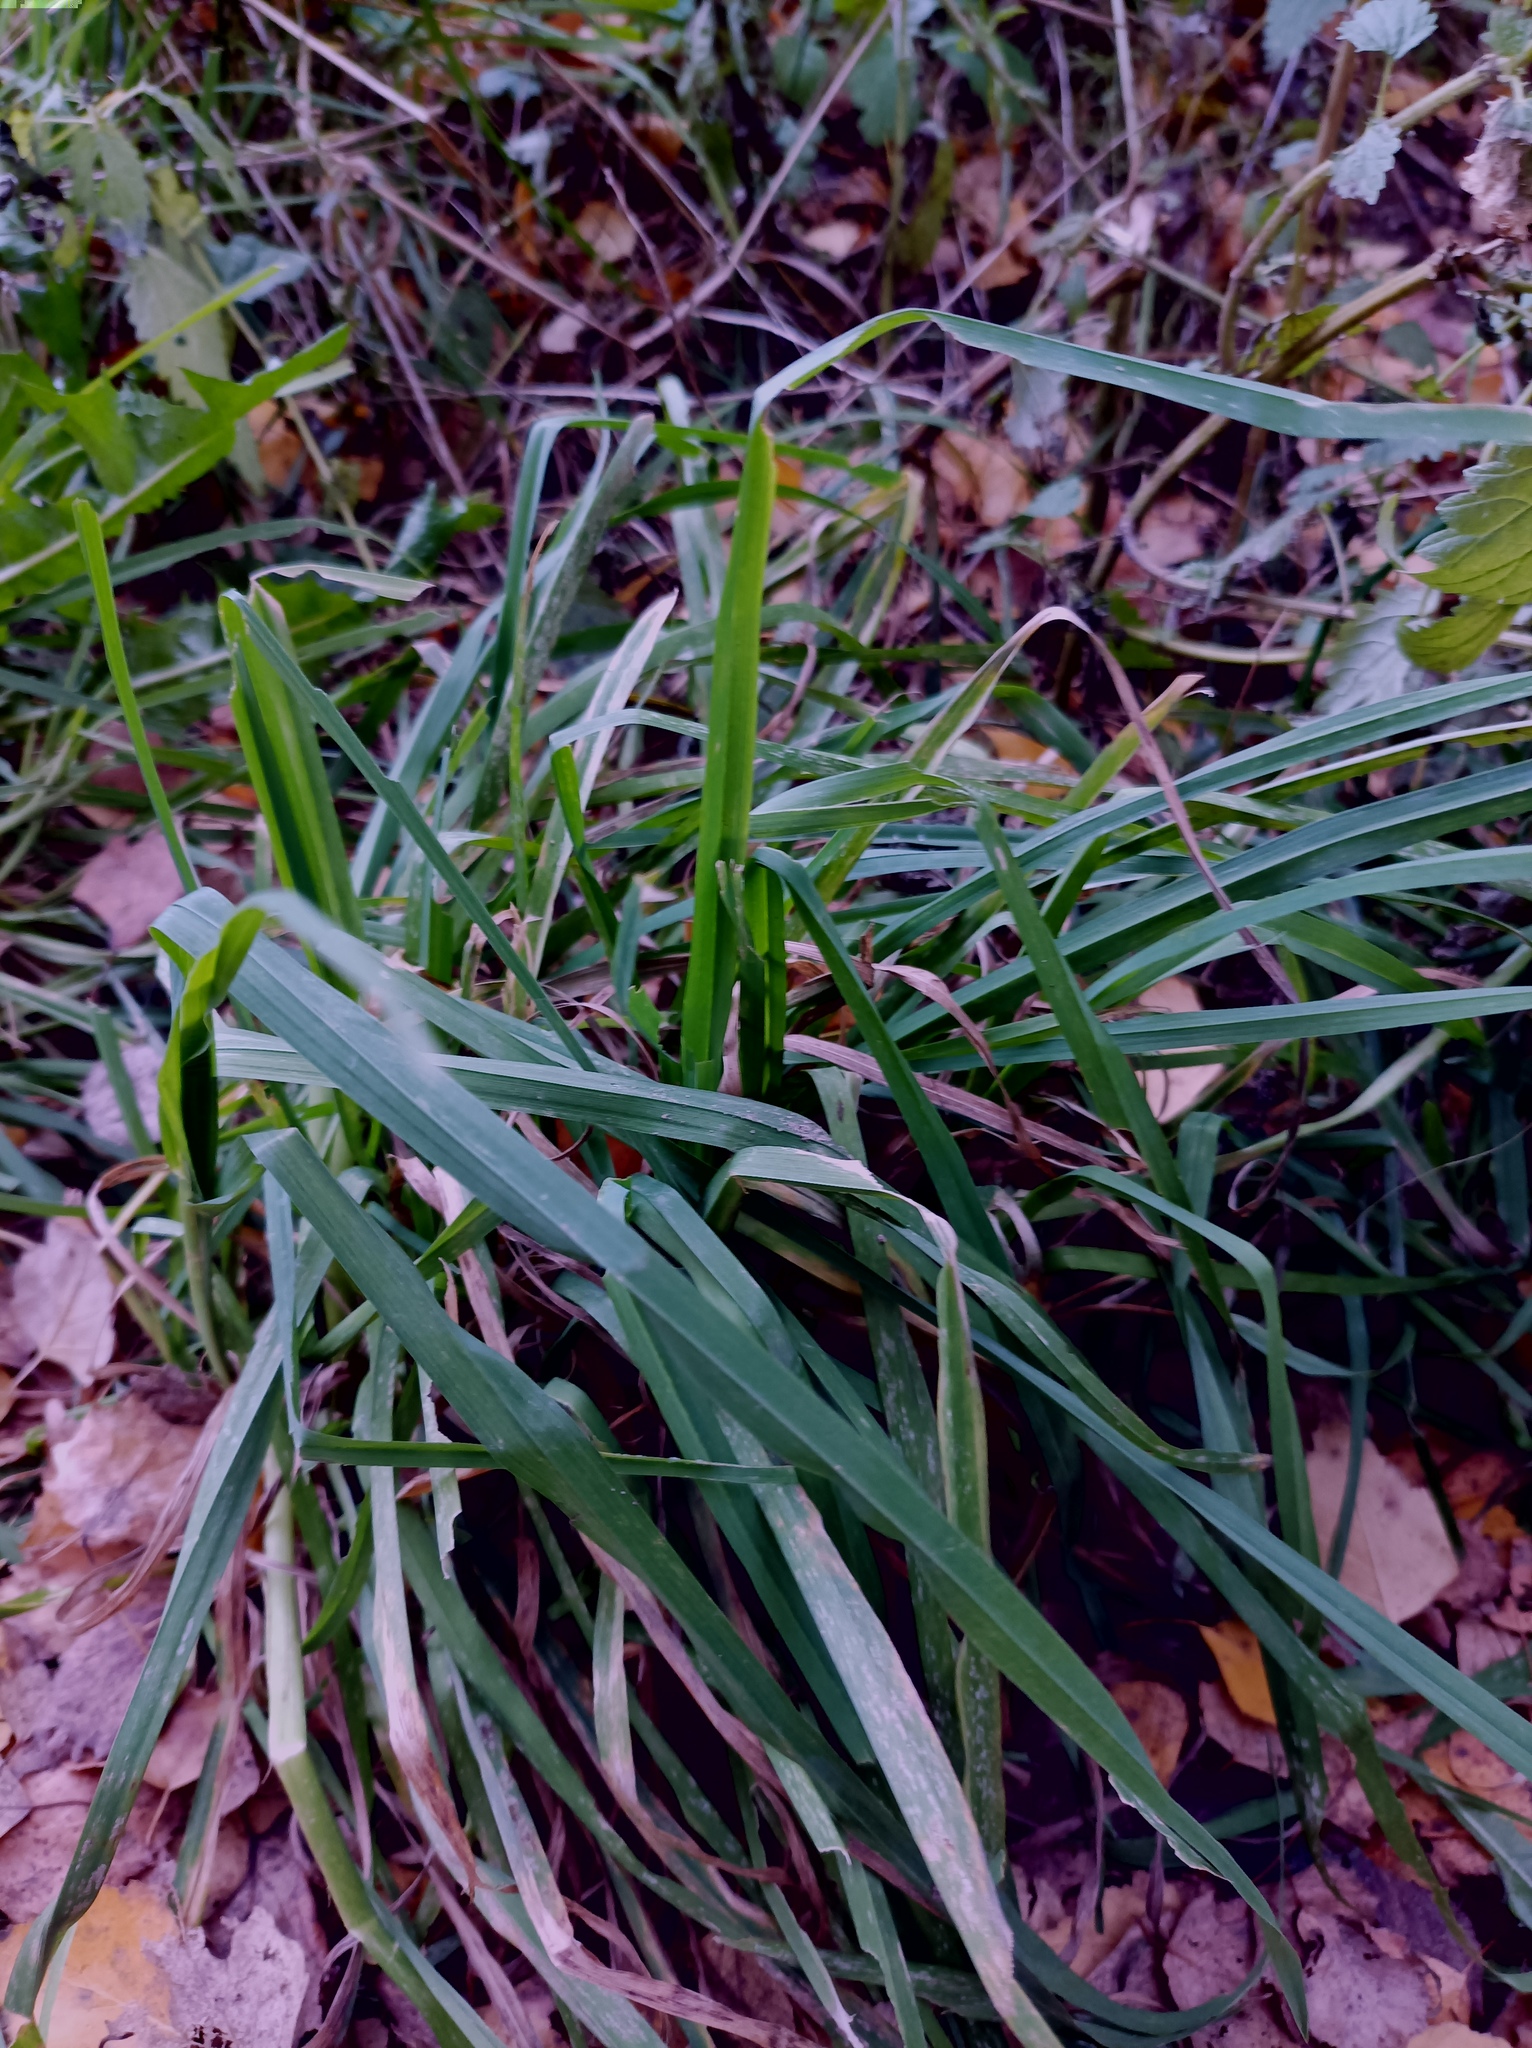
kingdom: Plantae
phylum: Tracheophyta
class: Liliopsida
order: Poales
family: Poaceae
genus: Dactylis
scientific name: Dactylis glomerata
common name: Orchardgrass
